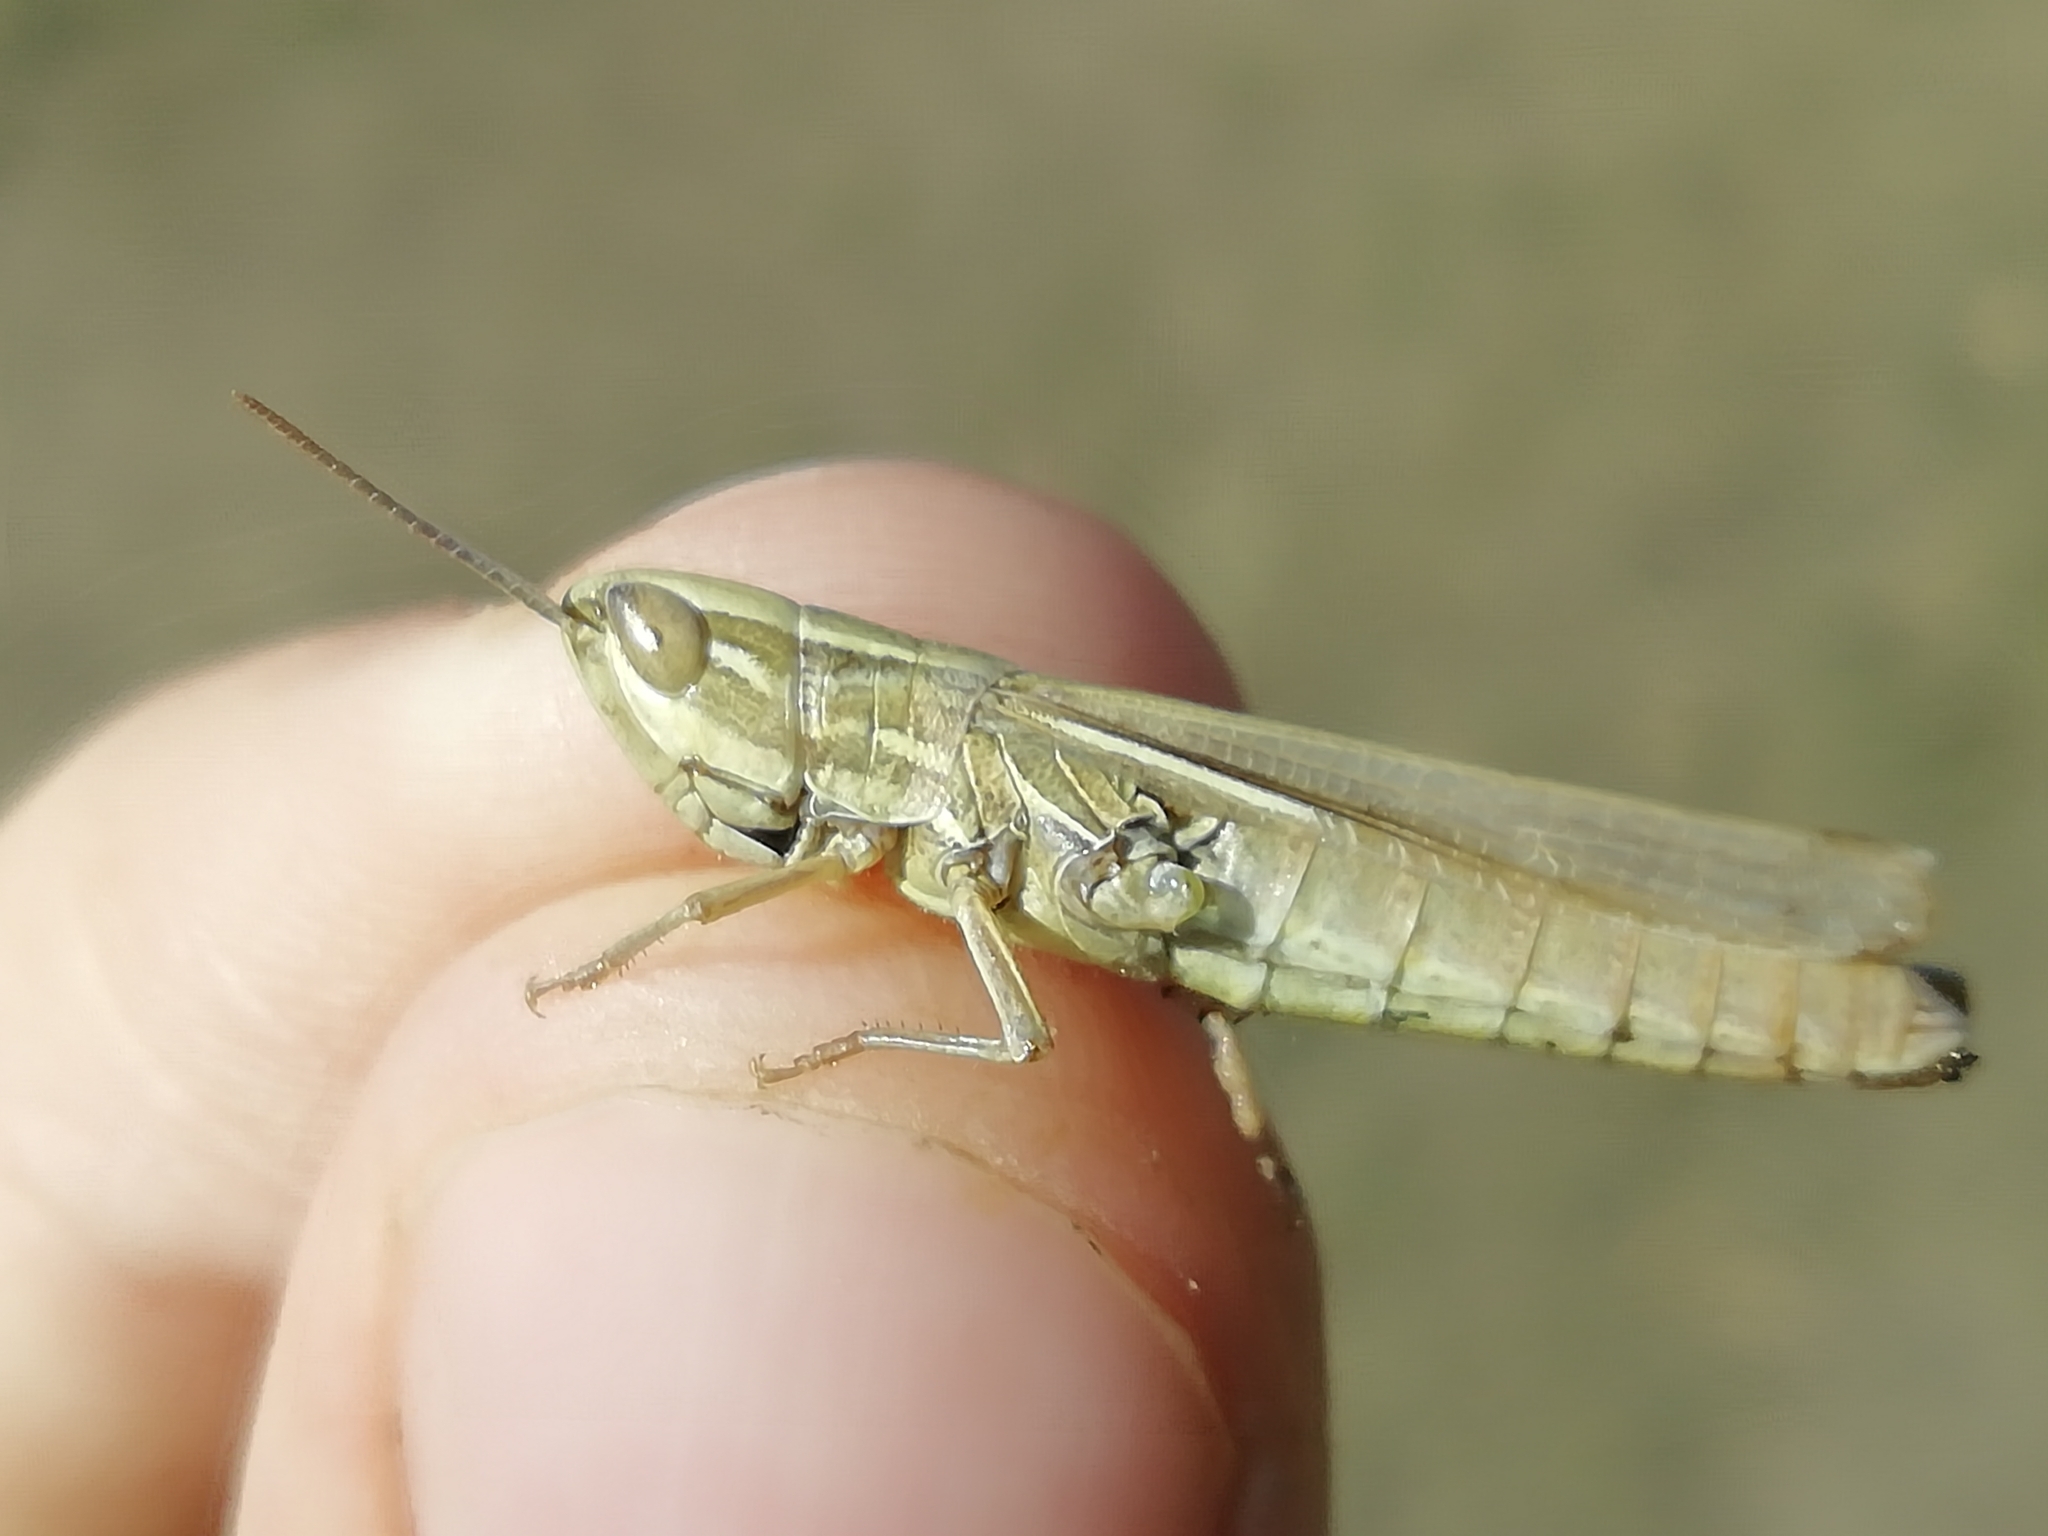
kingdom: Animalia
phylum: Arthropoda
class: Insecta
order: Orthoptera
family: Acrididae
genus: Euchorthippus
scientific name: Euchorthippus pulvinatus
